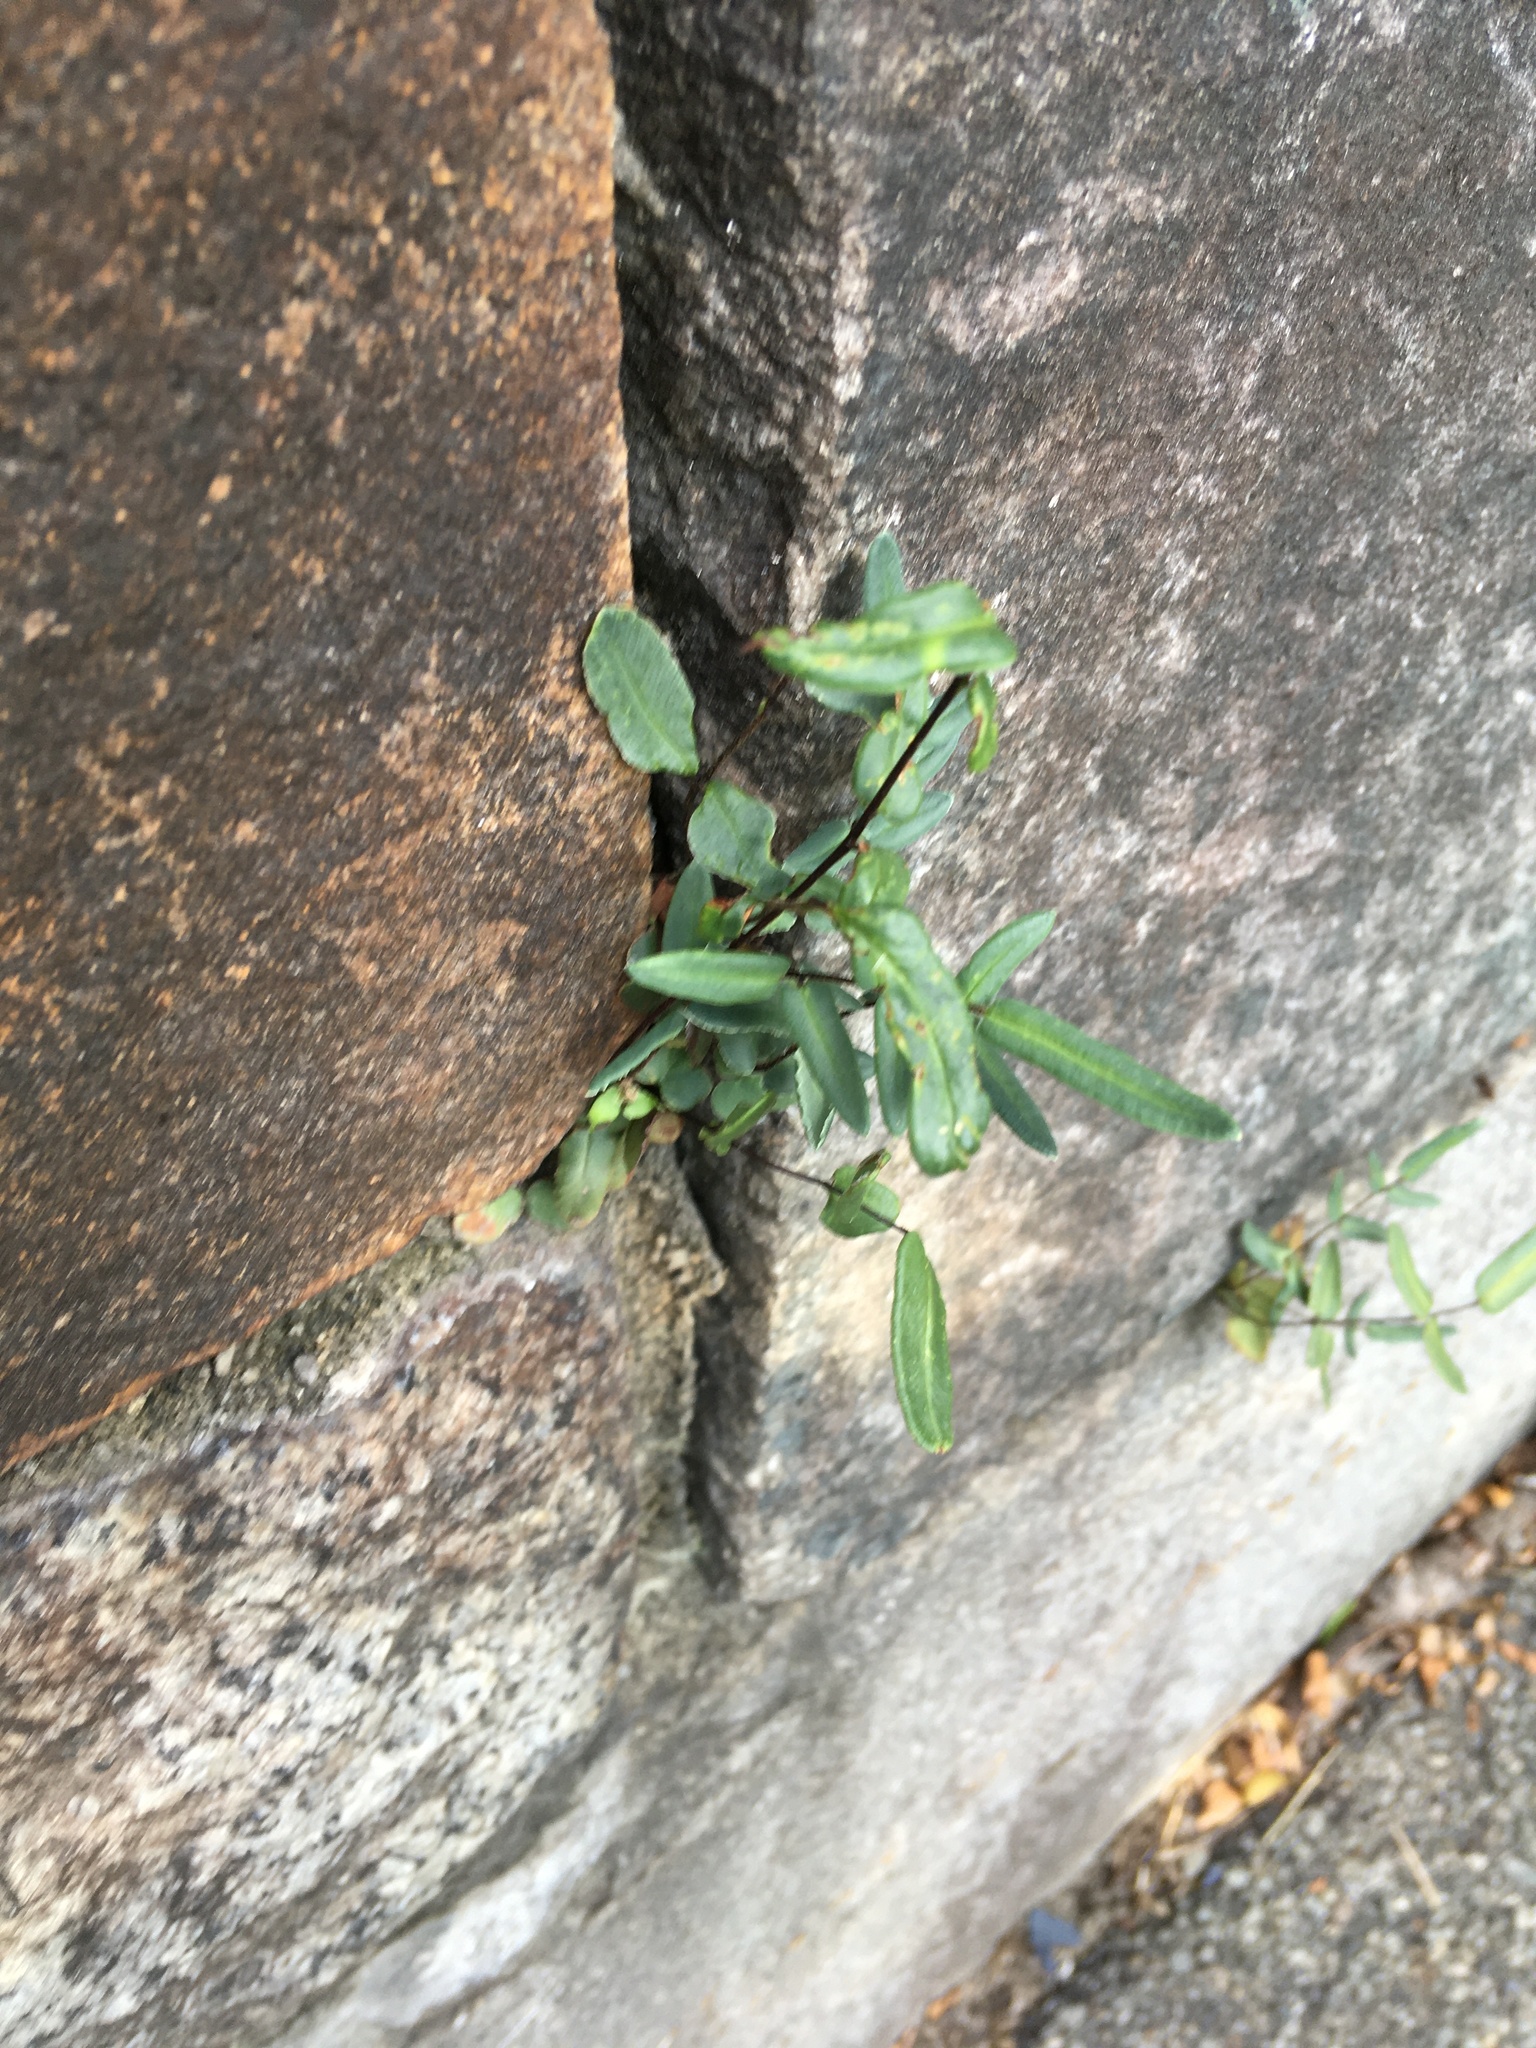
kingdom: Plantae
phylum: Tracheophyta
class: Polypodiopsida
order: Polypodiales
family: Pteridaceae
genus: Pellaea
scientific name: Pellaea atropurpurea
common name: Hairy cliffbrake
